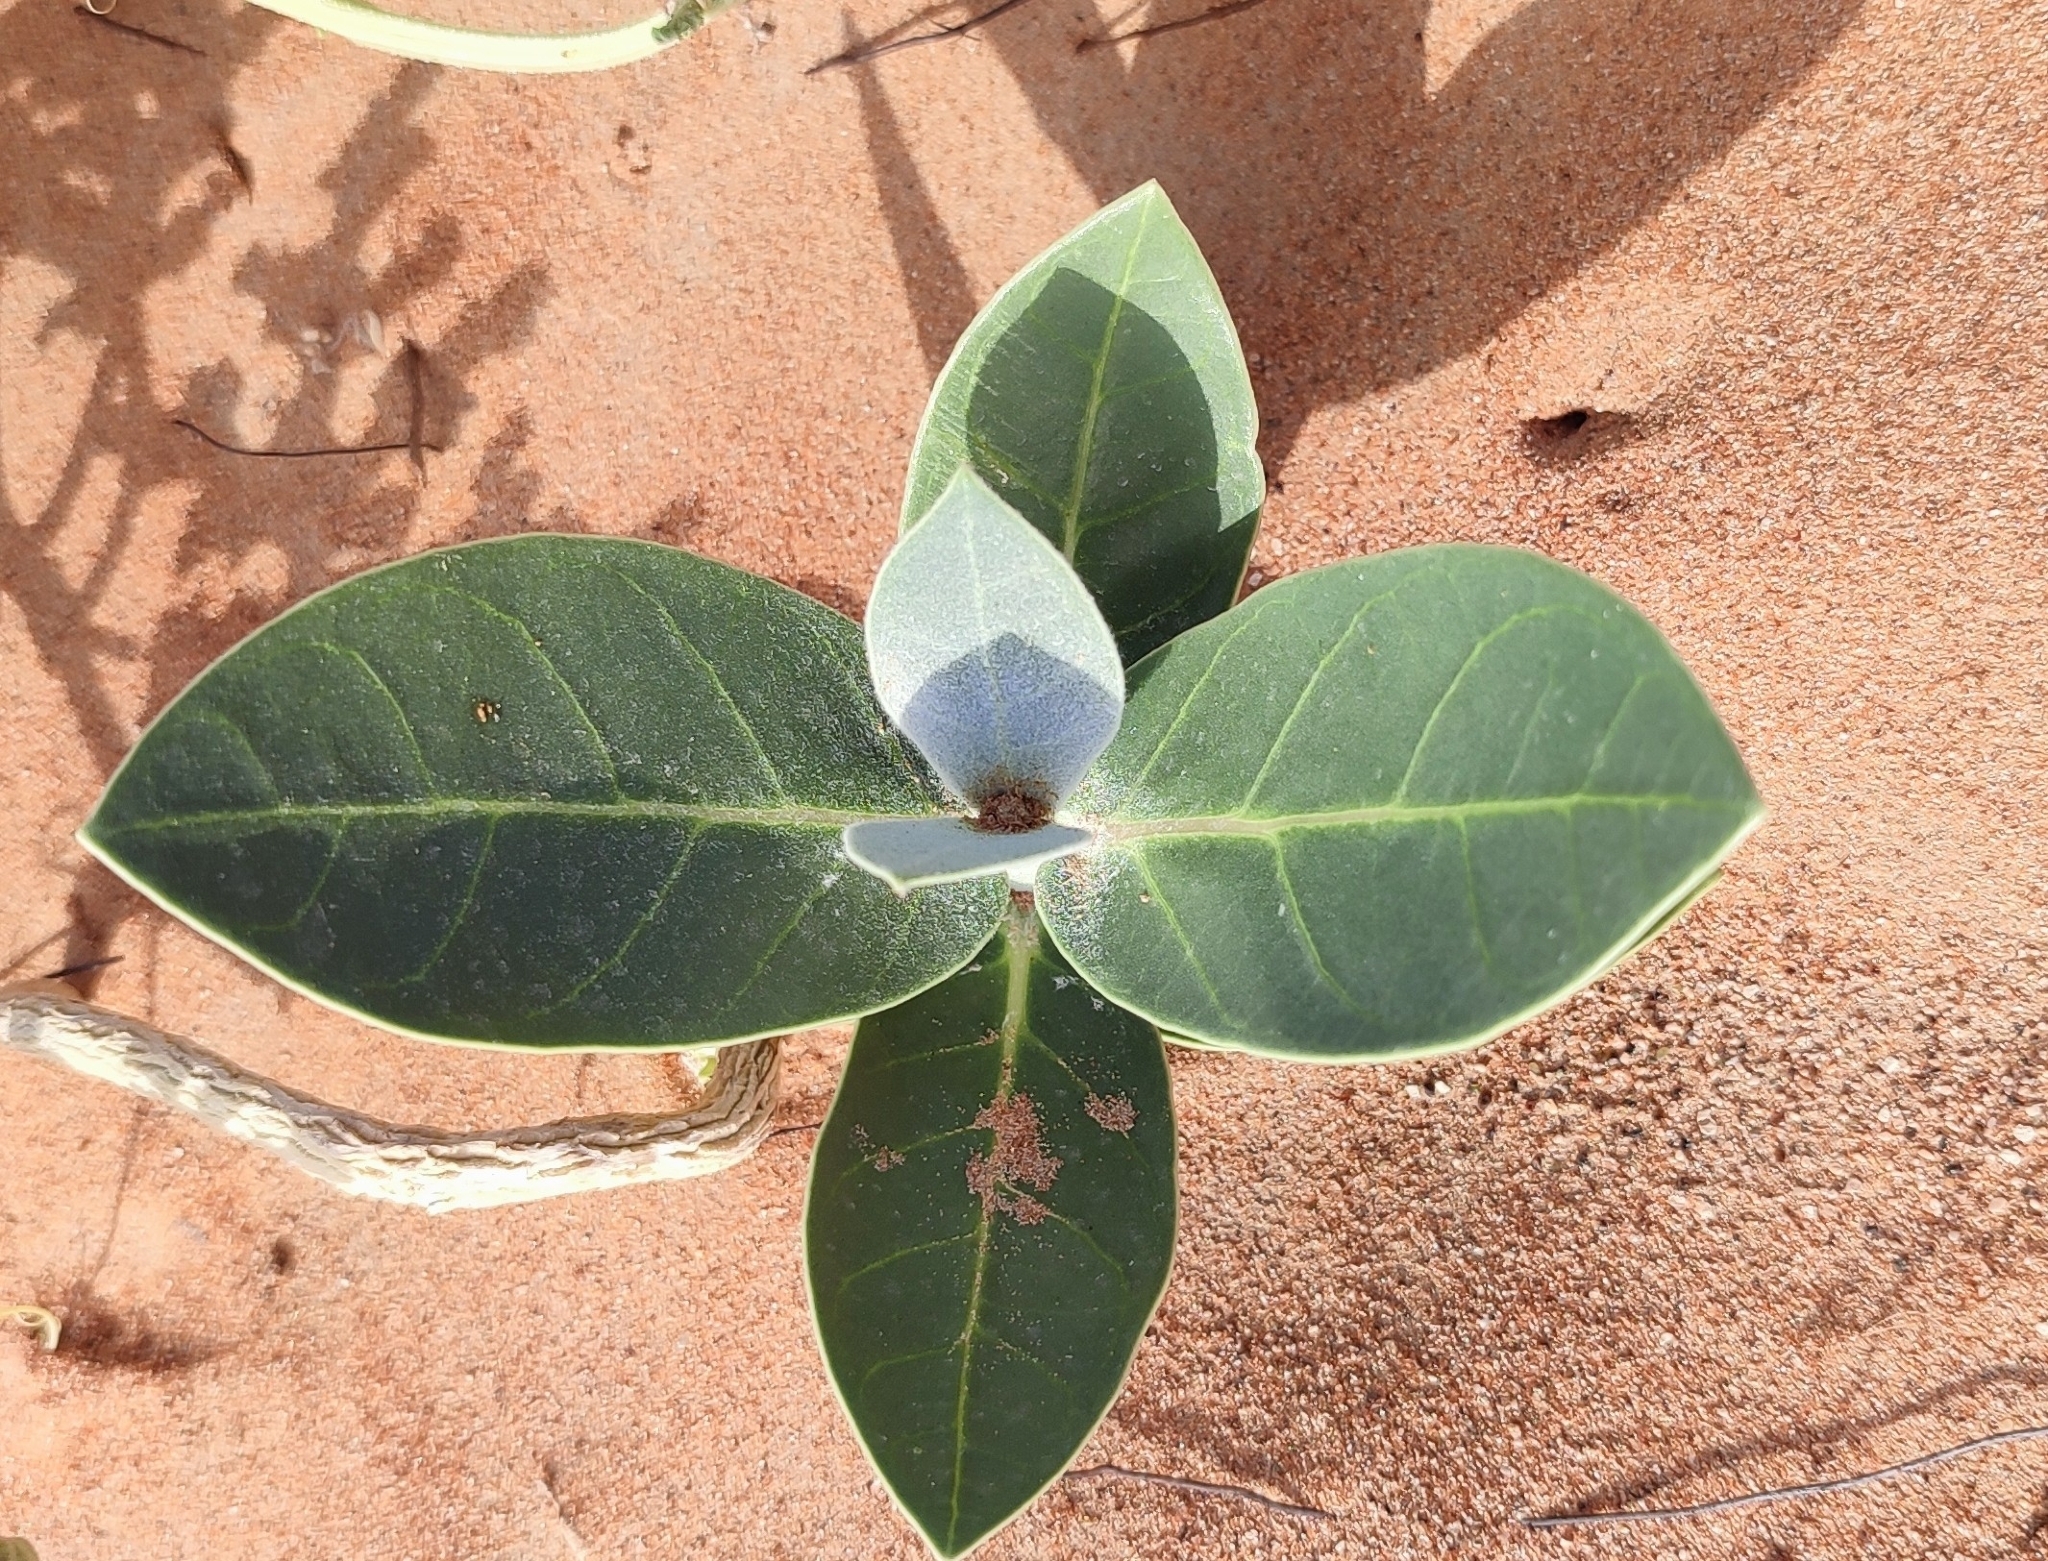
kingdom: Plantae
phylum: Tracheophyta
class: Magnoliopsida
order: Gentianales
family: Apocynaceae
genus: Calotropis
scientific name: Calotropis procera
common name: Roostertree
